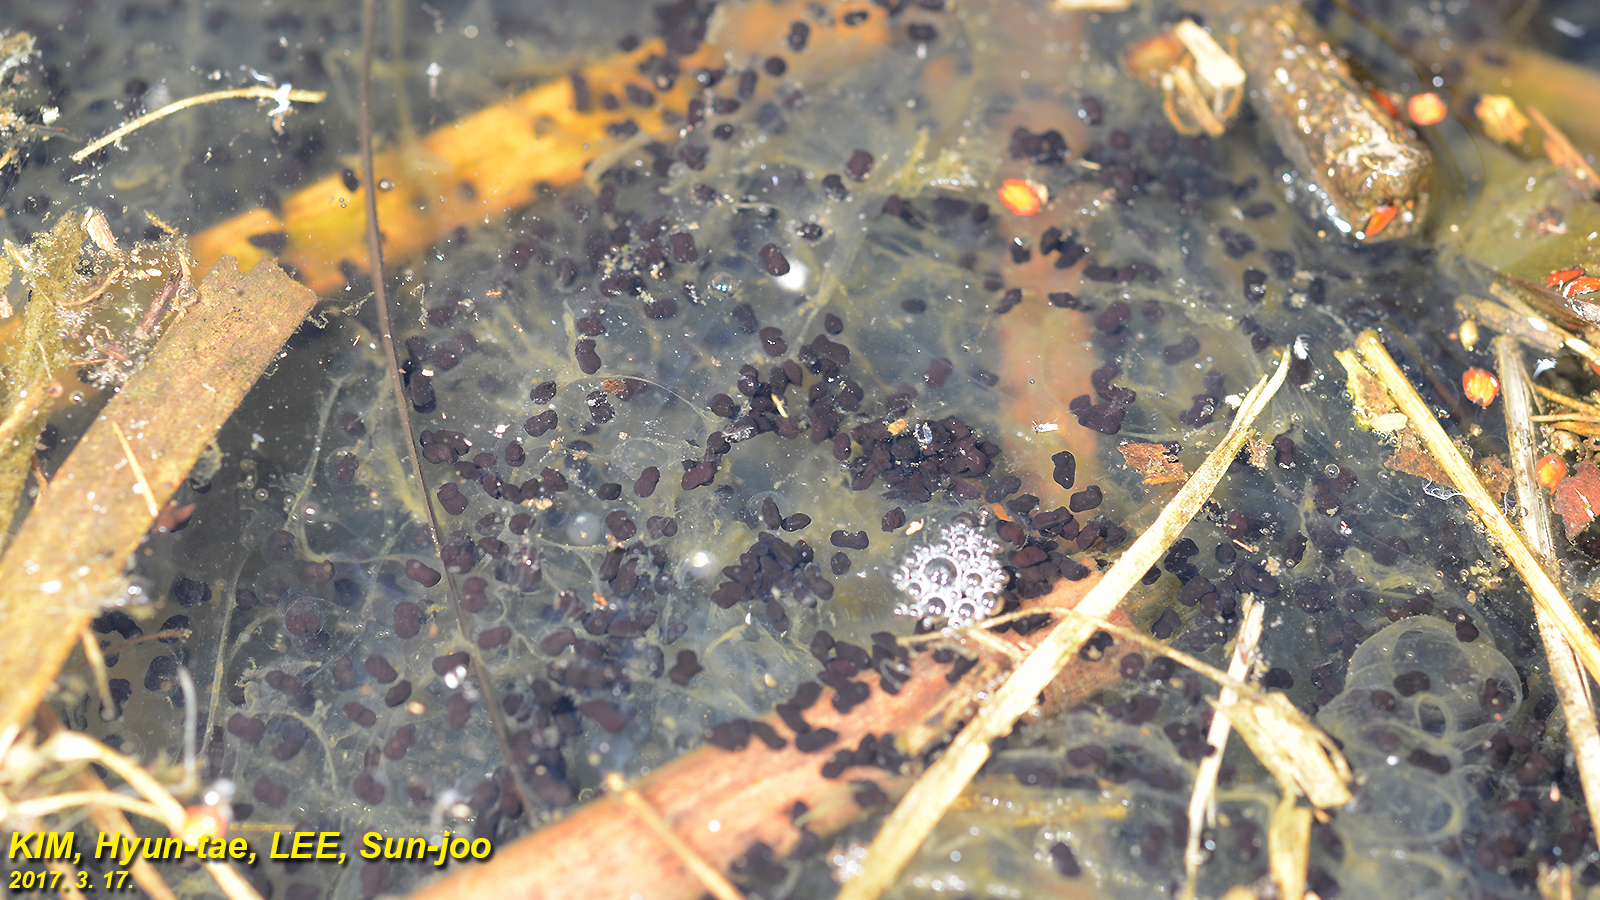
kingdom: Animalia
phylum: Chordata
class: Amphibia
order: Anura
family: Bufonidae
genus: Bufo
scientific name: Bufo gargarizans
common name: Asiatic toad
